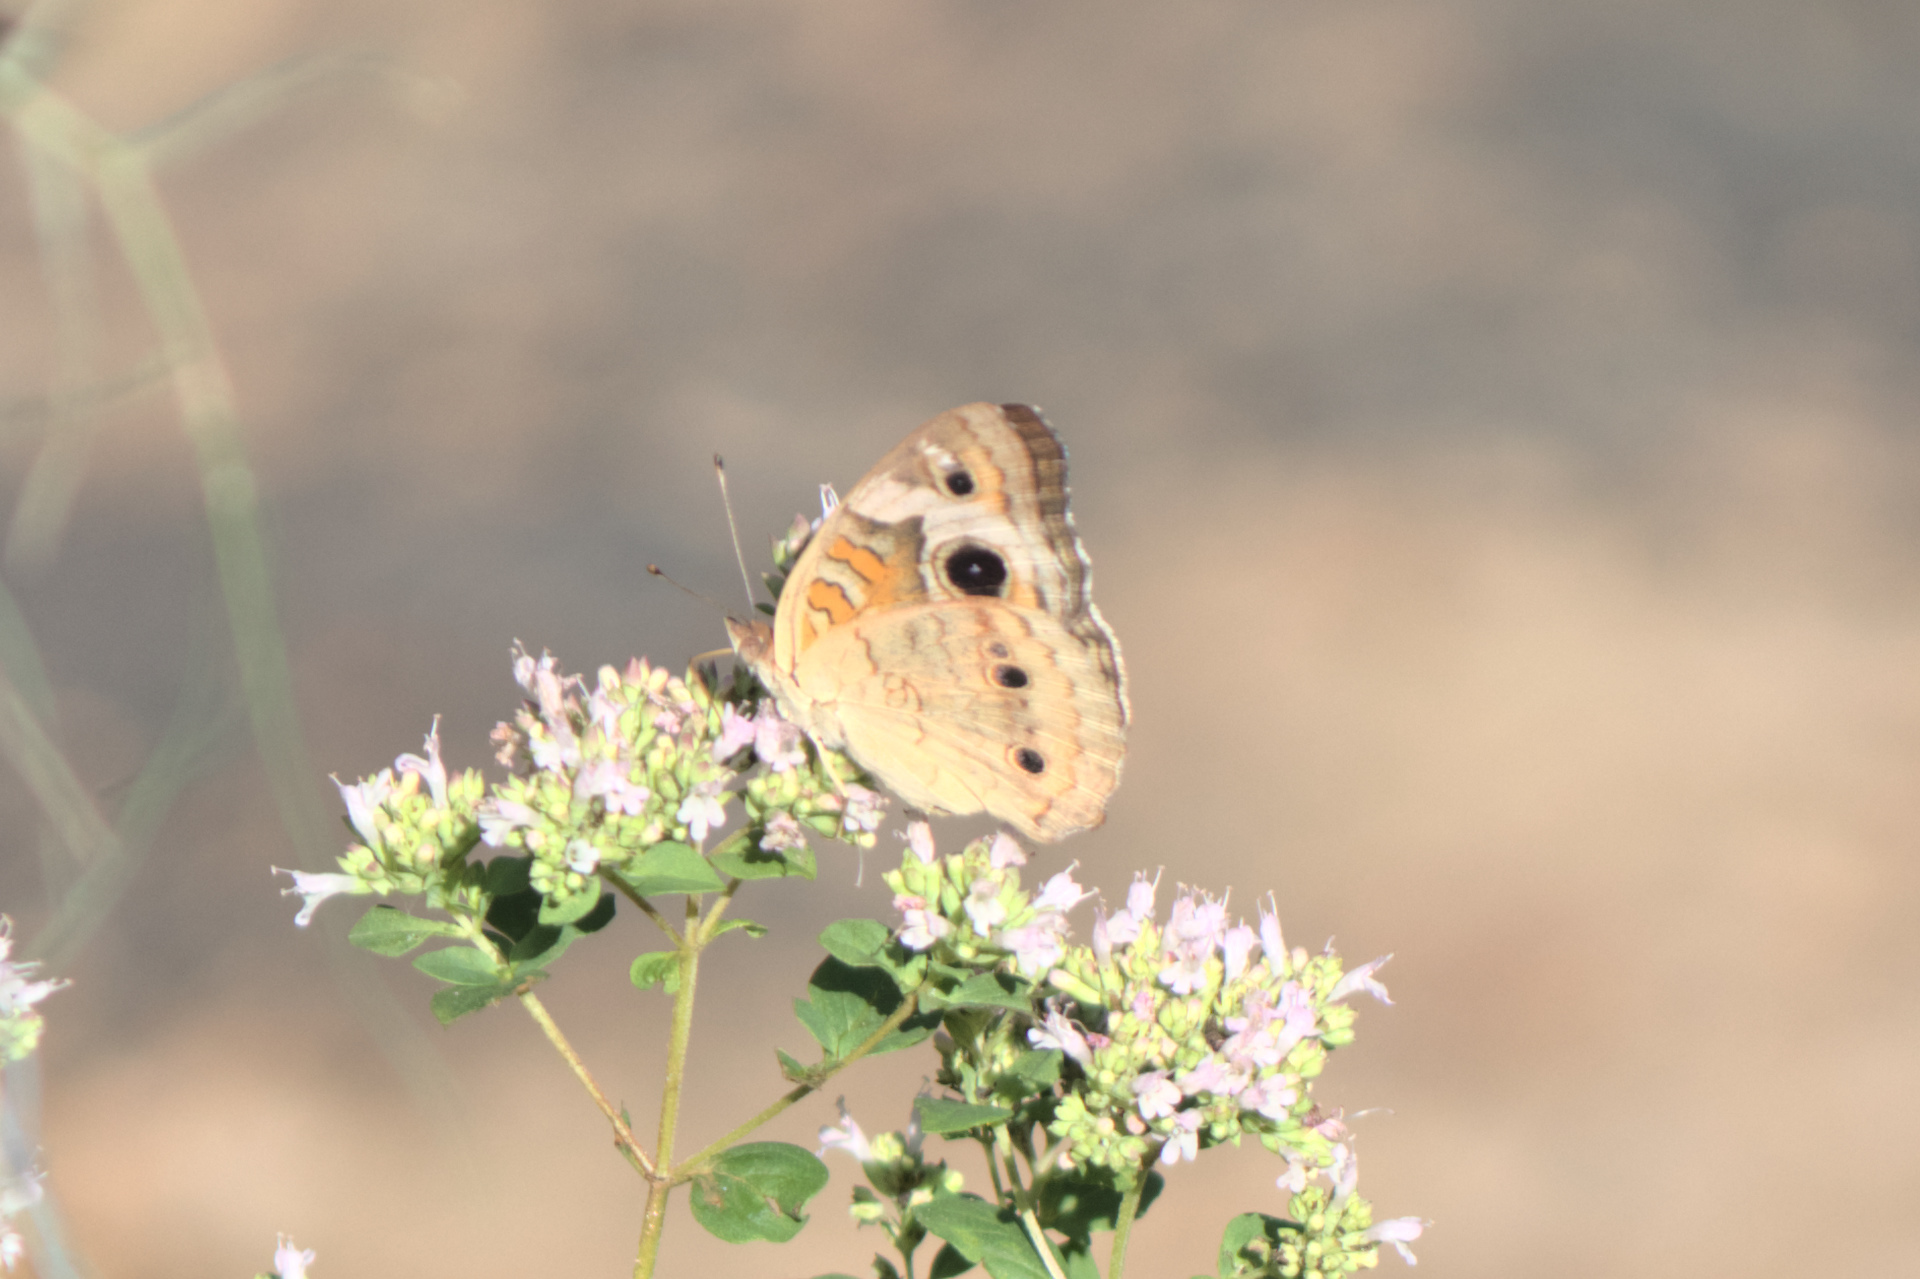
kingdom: Animalia
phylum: Arthropoda
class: Insecta
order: Lepidoptera
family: Nymphalidae
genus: Junonia
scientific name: Junonia coenia
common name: Common buckeye
